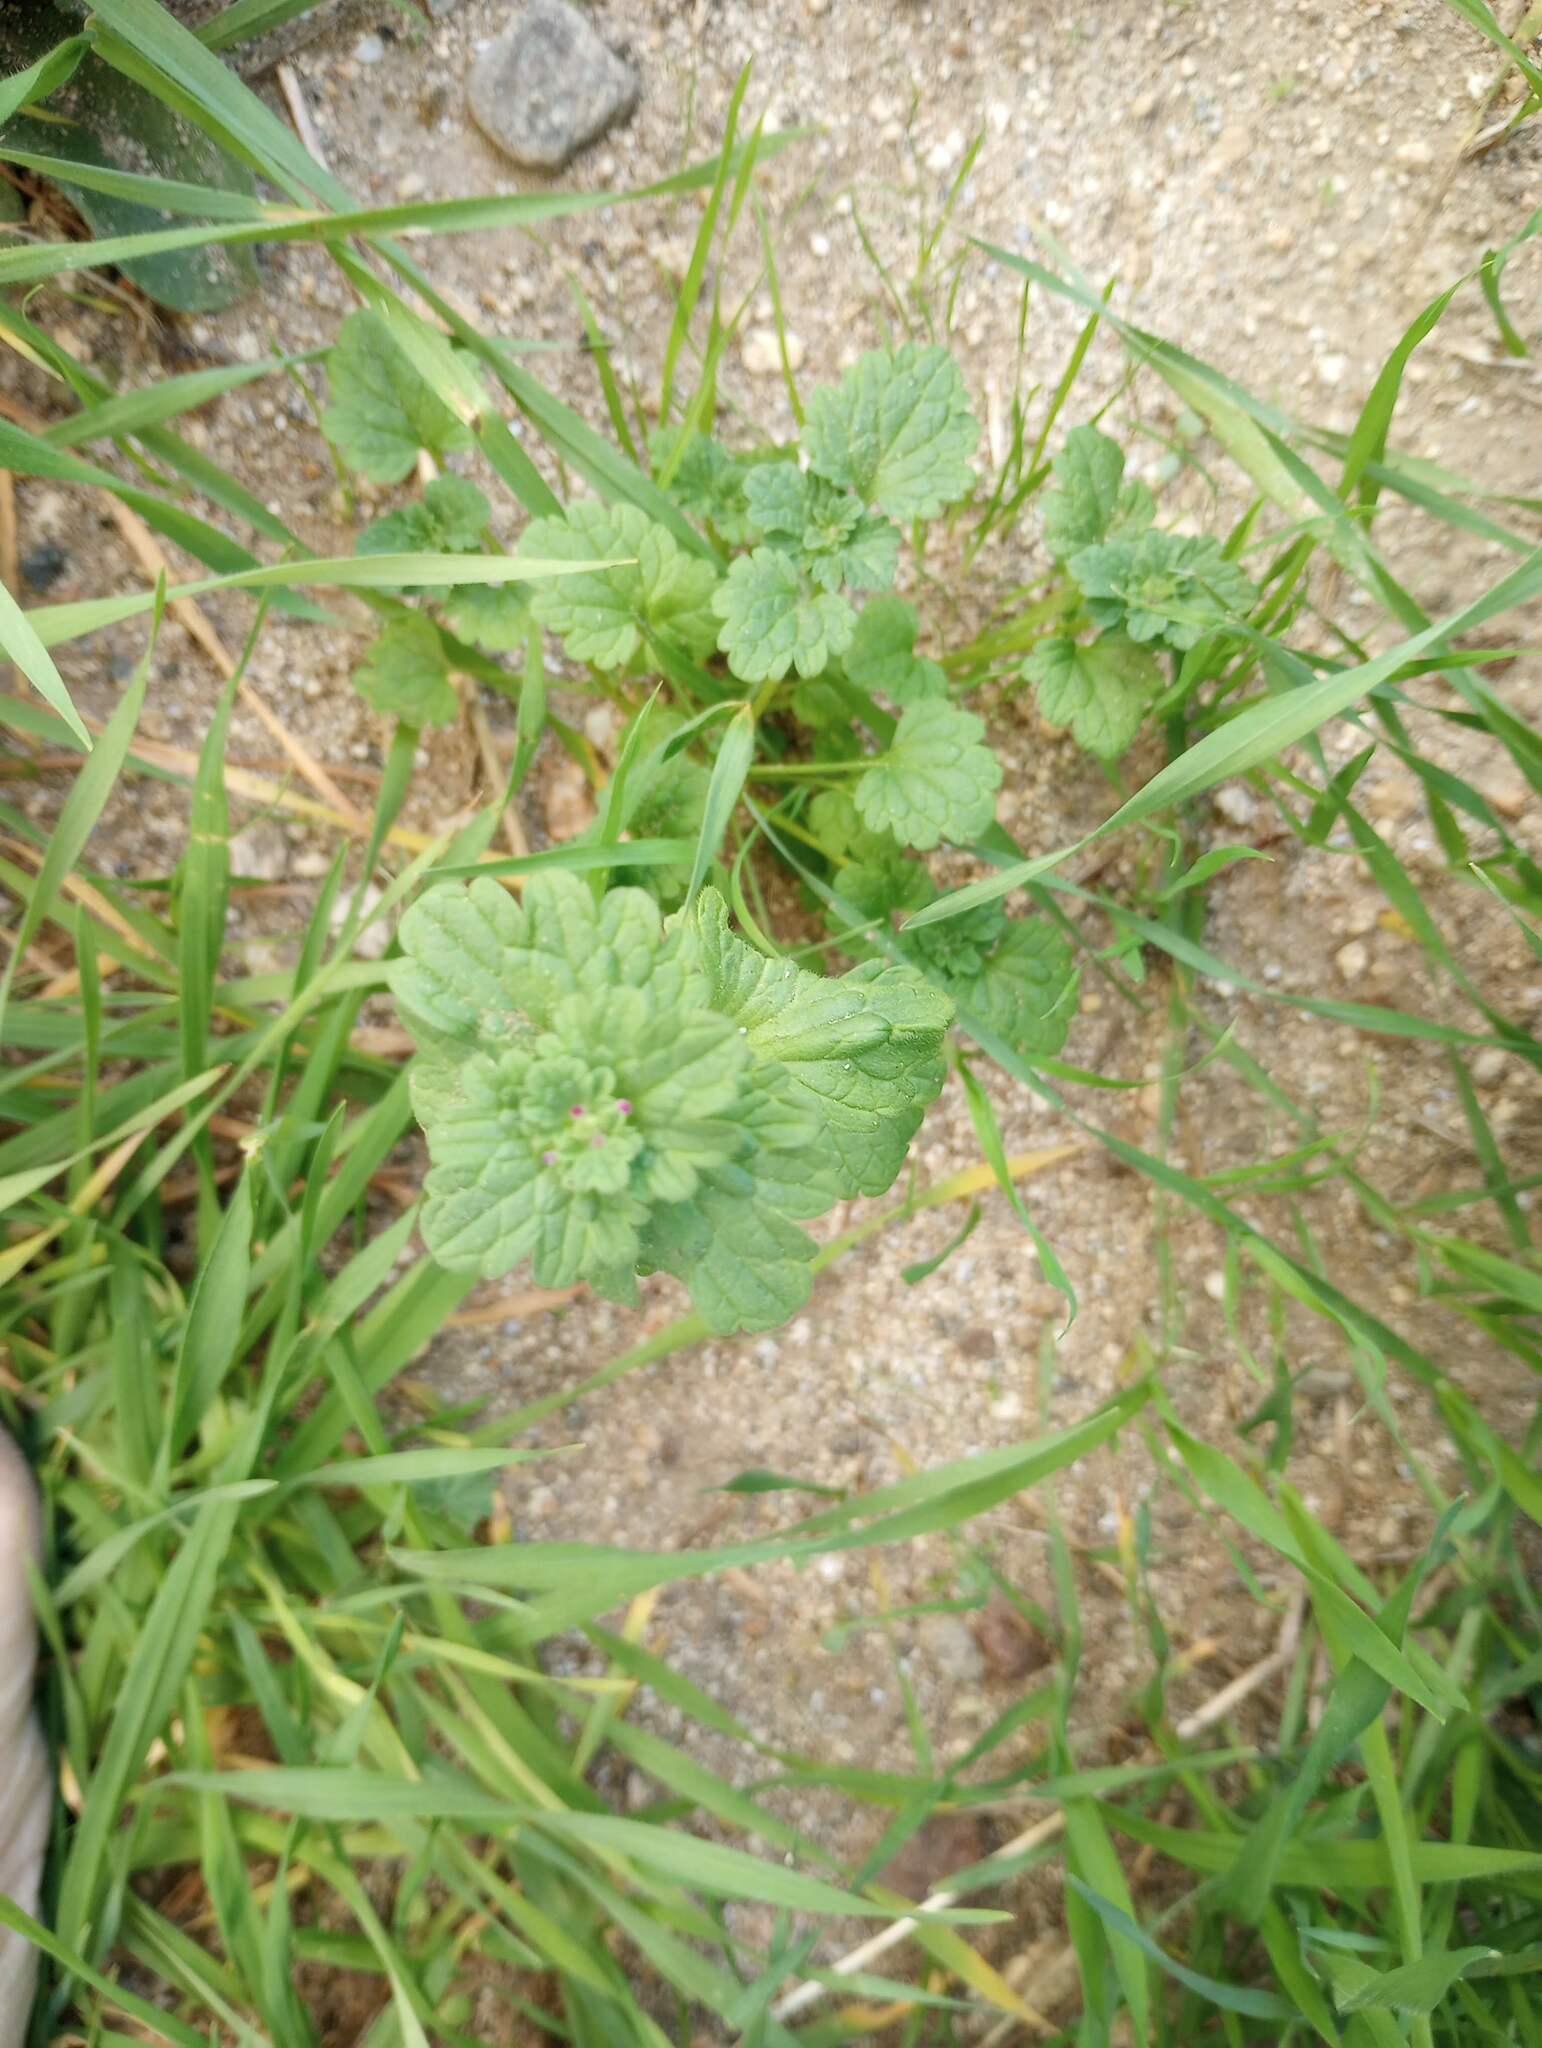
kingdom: Plantae
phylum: Tracheophyta
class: Magnoliopsida
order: Lamiales
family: Lamiaceae
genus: Lamium
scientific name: Lamium amplexicaule
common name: Henbit dead-nettle
